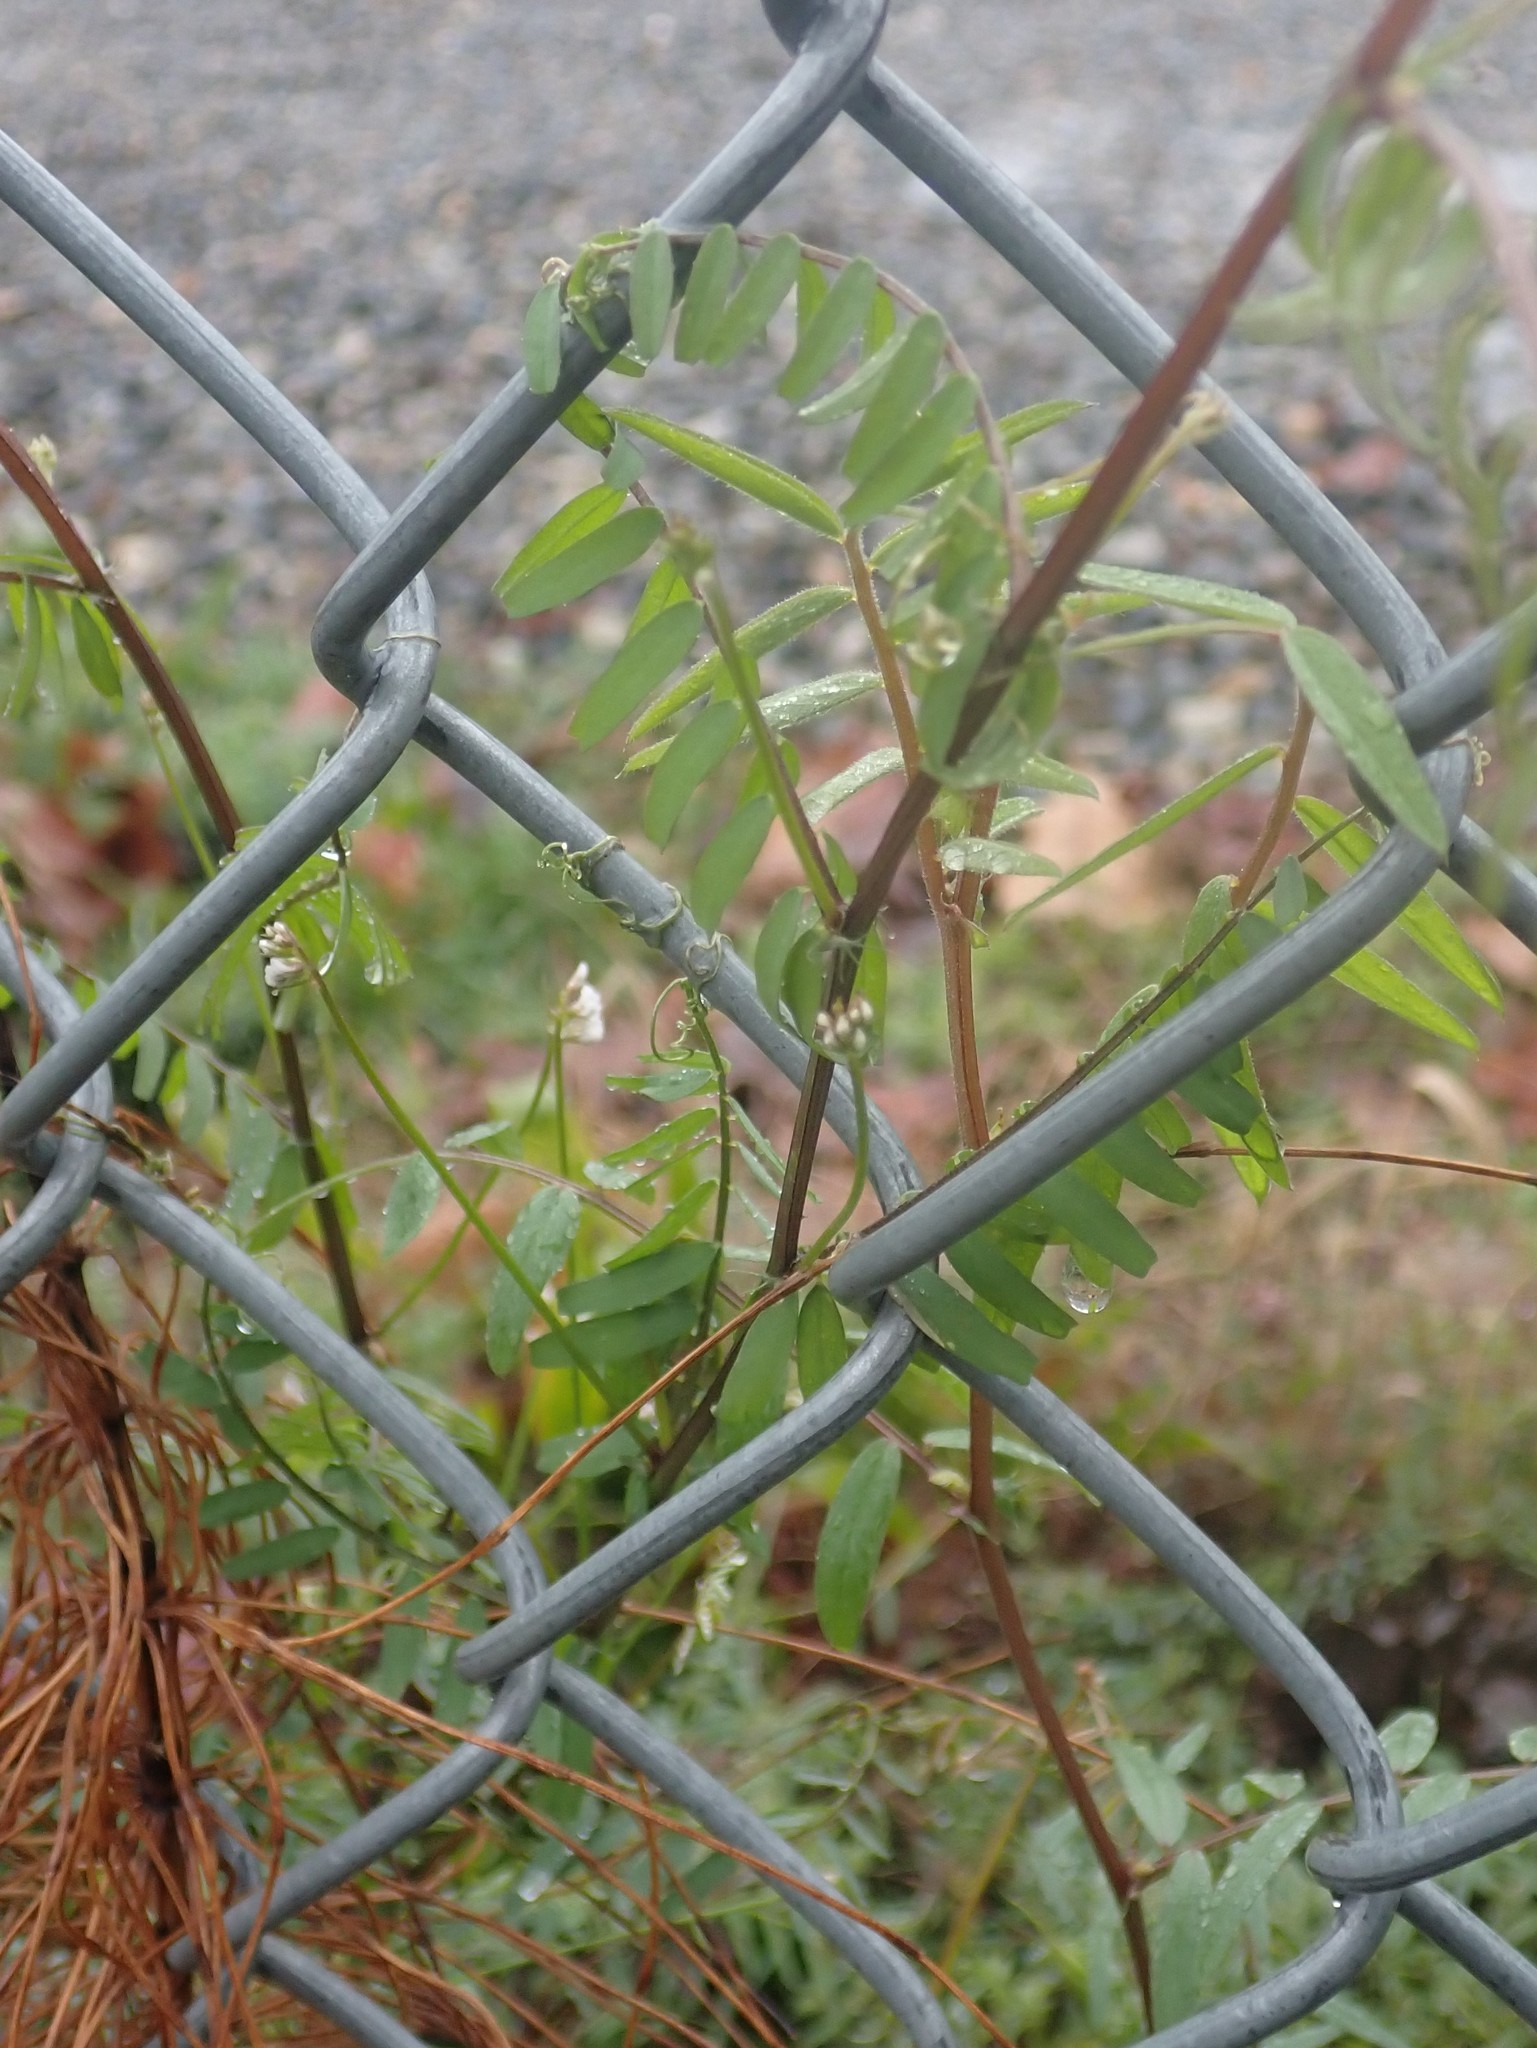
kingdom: Plantae
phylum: Tracheophyta
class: Magnoliopsida
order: Fabales
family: Fabaceae
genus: Vicia
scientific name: Vicia hirsuta
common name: Tiny vetch
